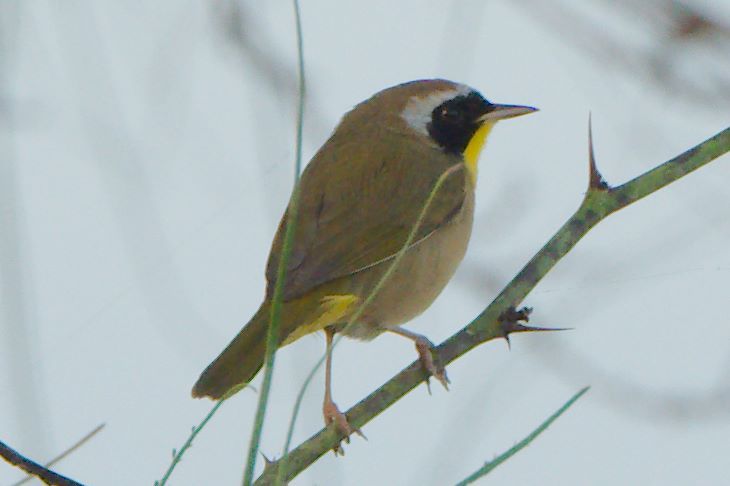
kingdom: Animalia
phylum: Chordata
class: Aves
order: Passeriformes
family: Parulidae
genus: Geothlypis
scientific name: Geothlypis trichas
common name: Common yellowthroat
